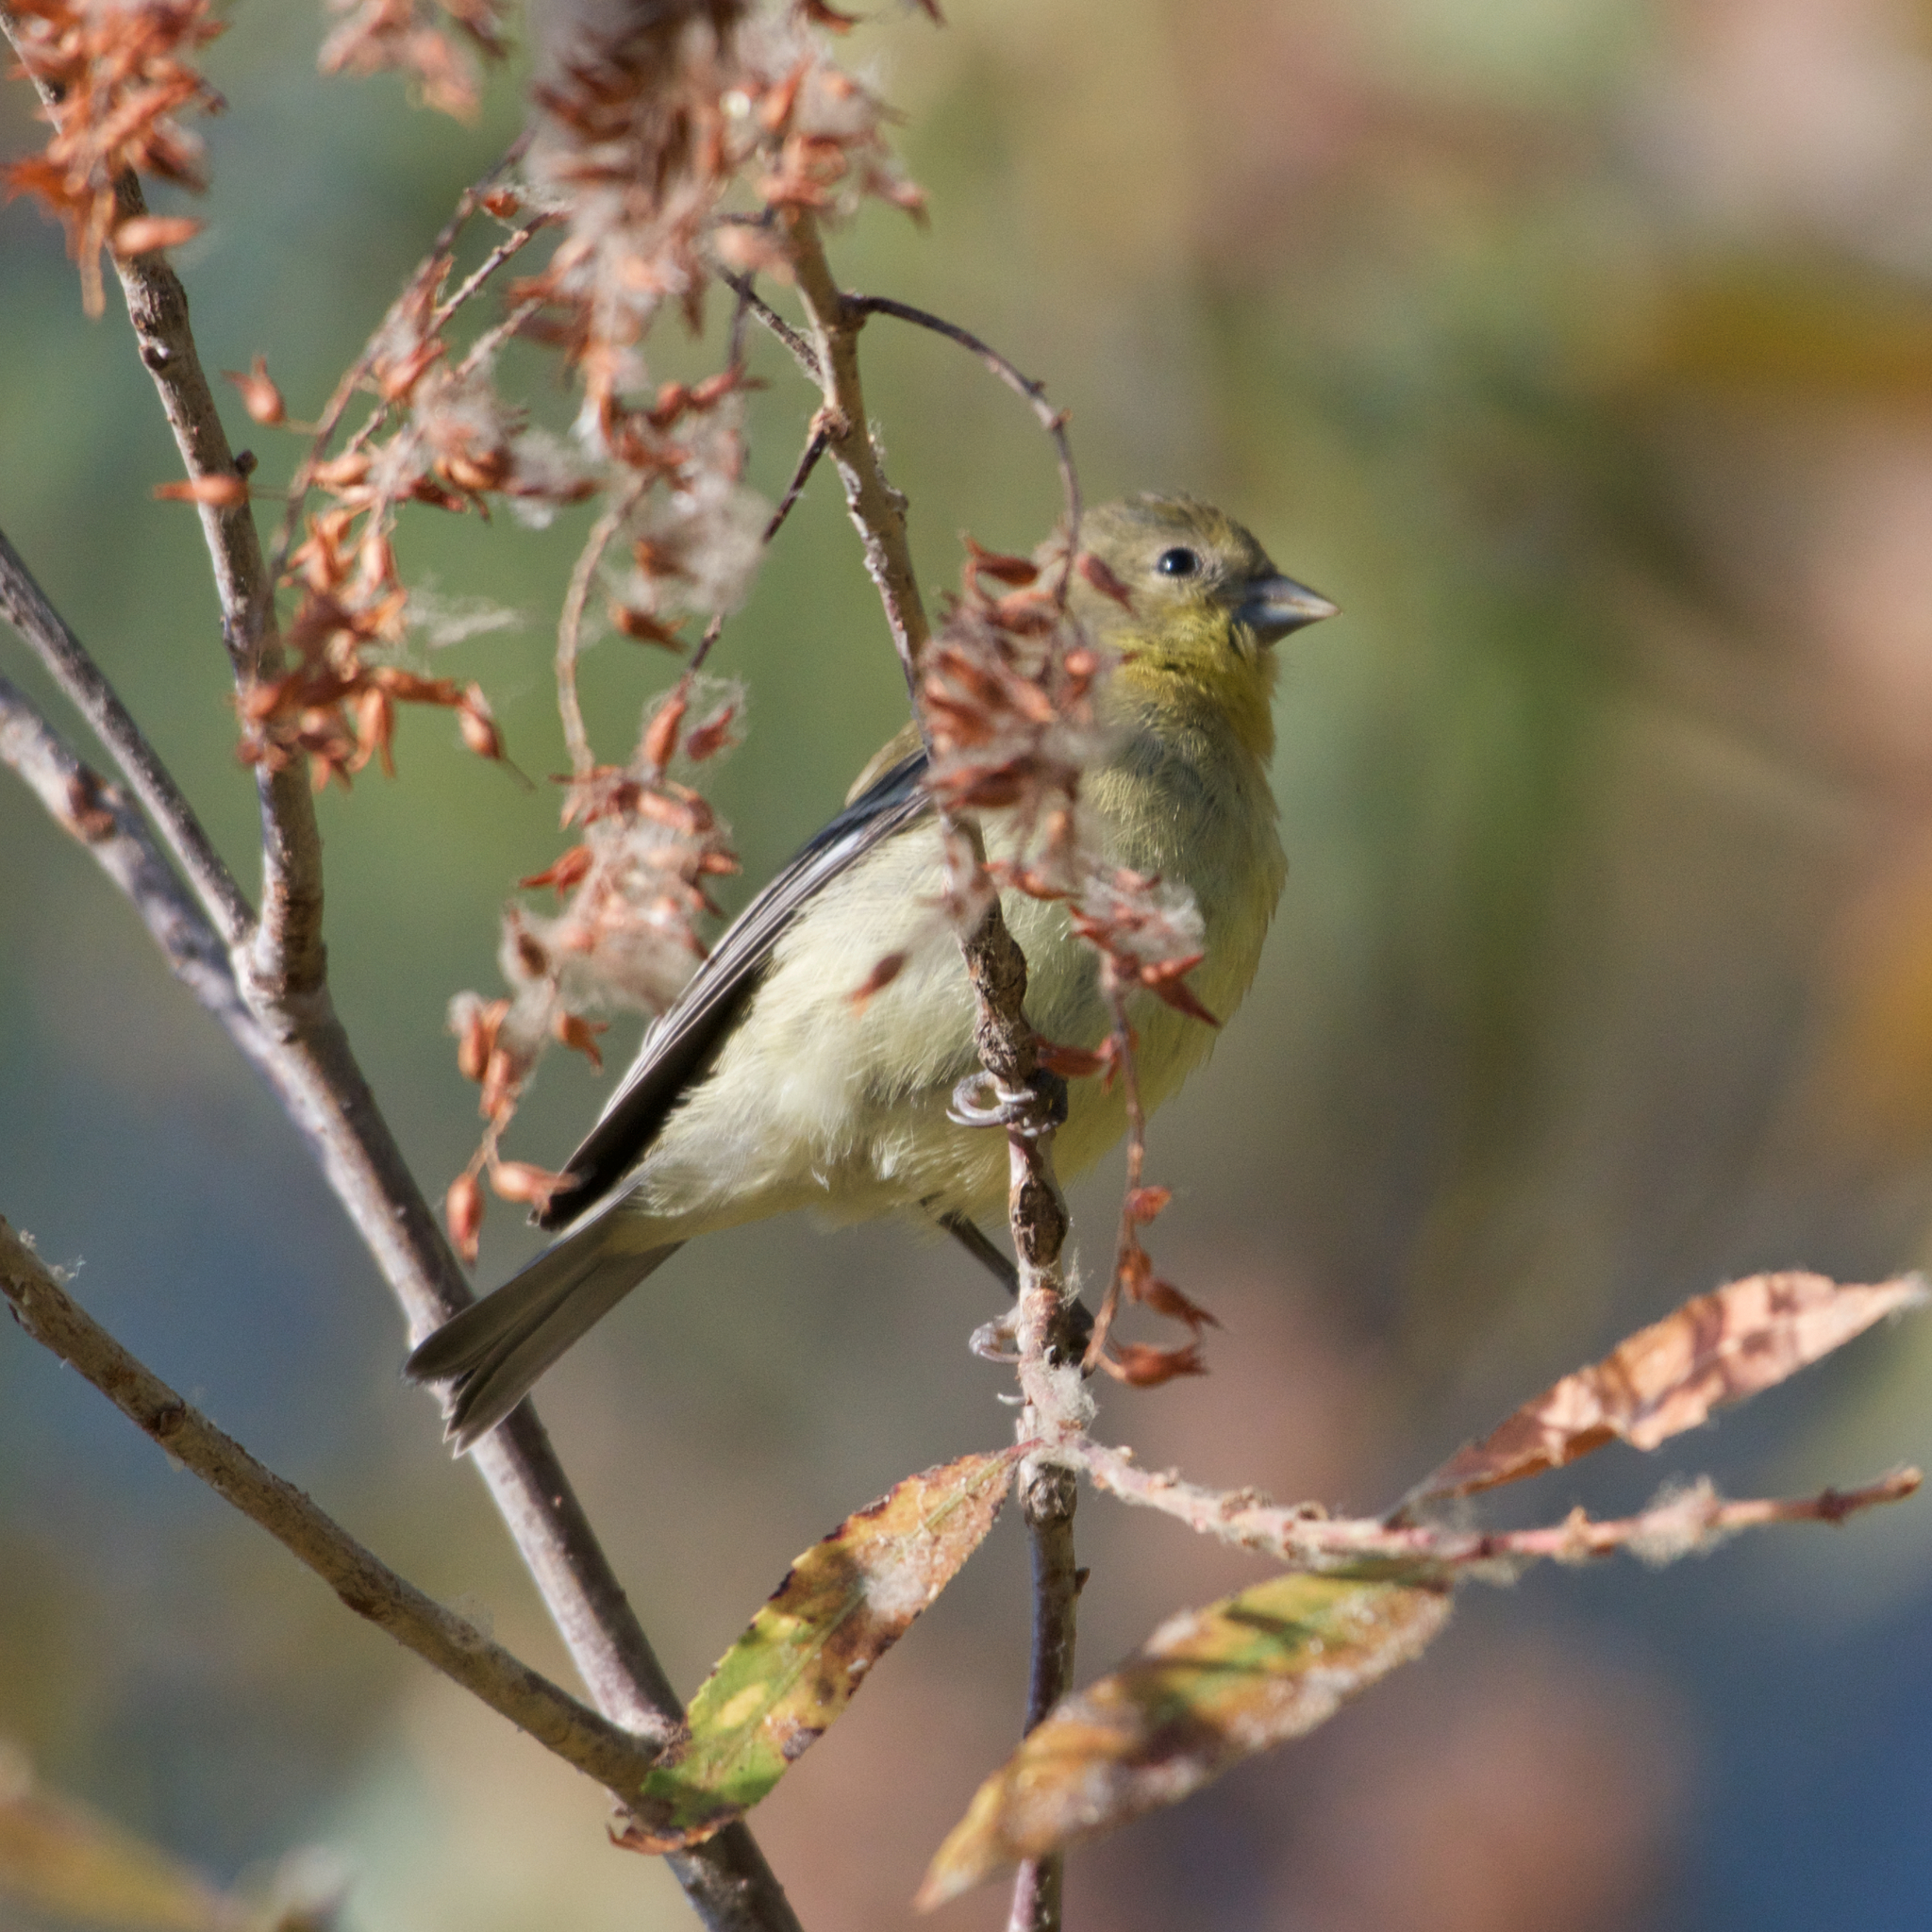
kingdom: Animalia
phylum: Chordata
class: Aves
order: Passeriformes
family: Fringillidae
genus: Spinus
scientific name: Spinus psaltria
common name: Lesser goldfinch
